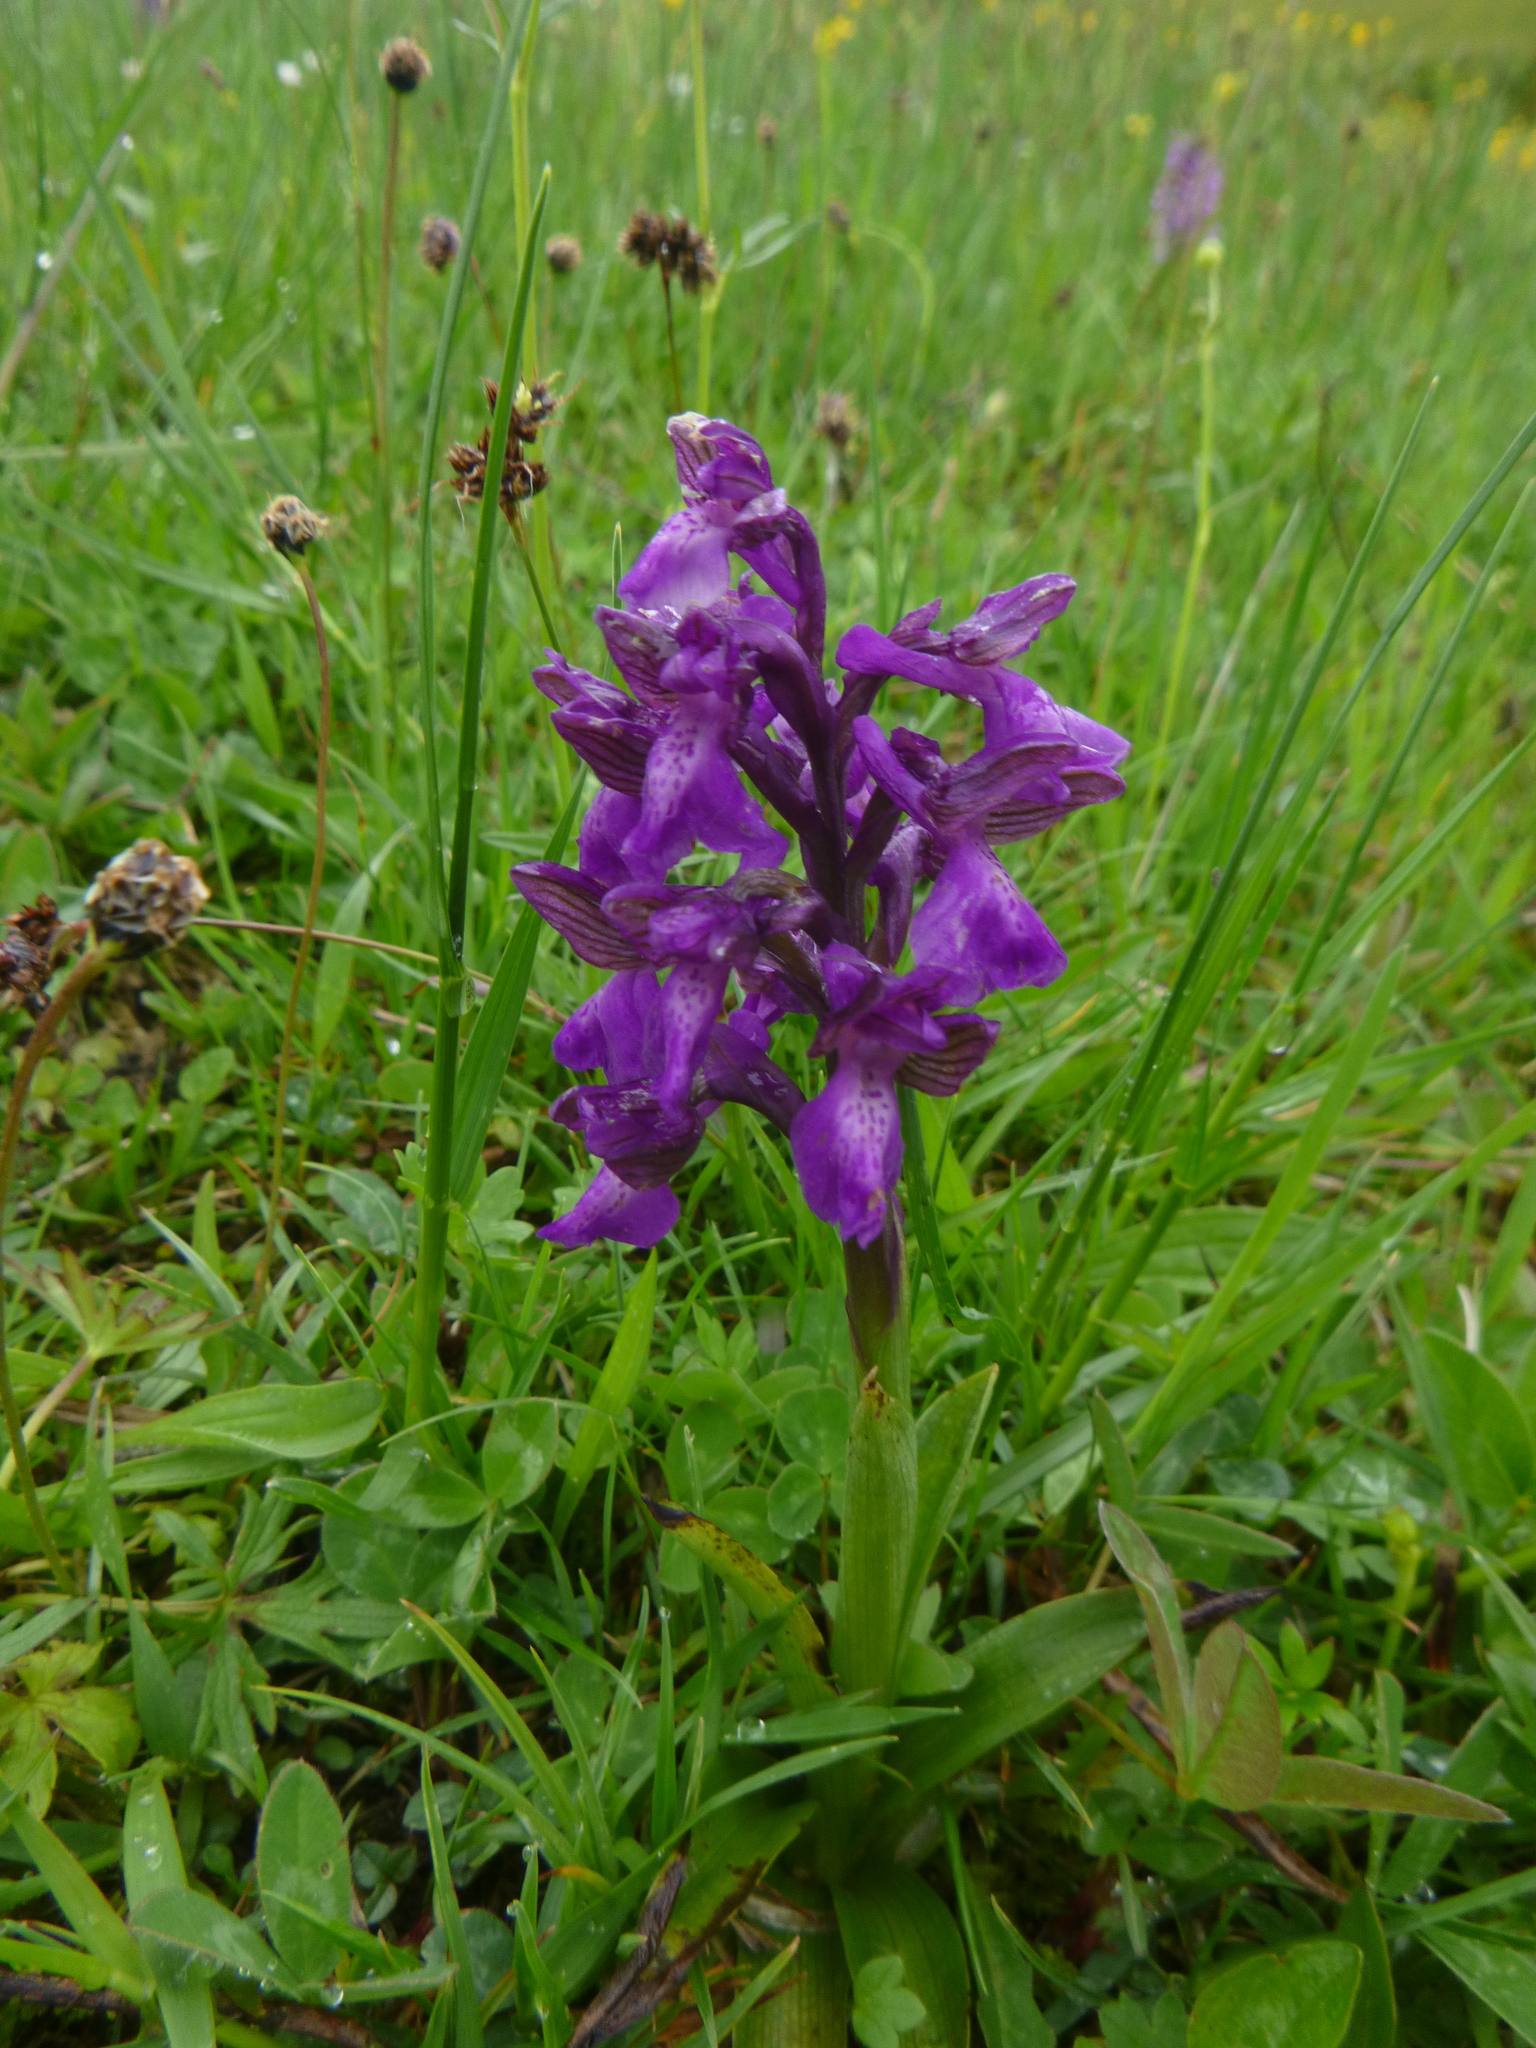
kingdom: Plantae
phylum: Tracheophyta
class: Liliopsida
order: Asparagales
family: Orchidaceae
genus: Anacamptis
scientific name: Anacamptis morio
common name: Green-winged orchid
